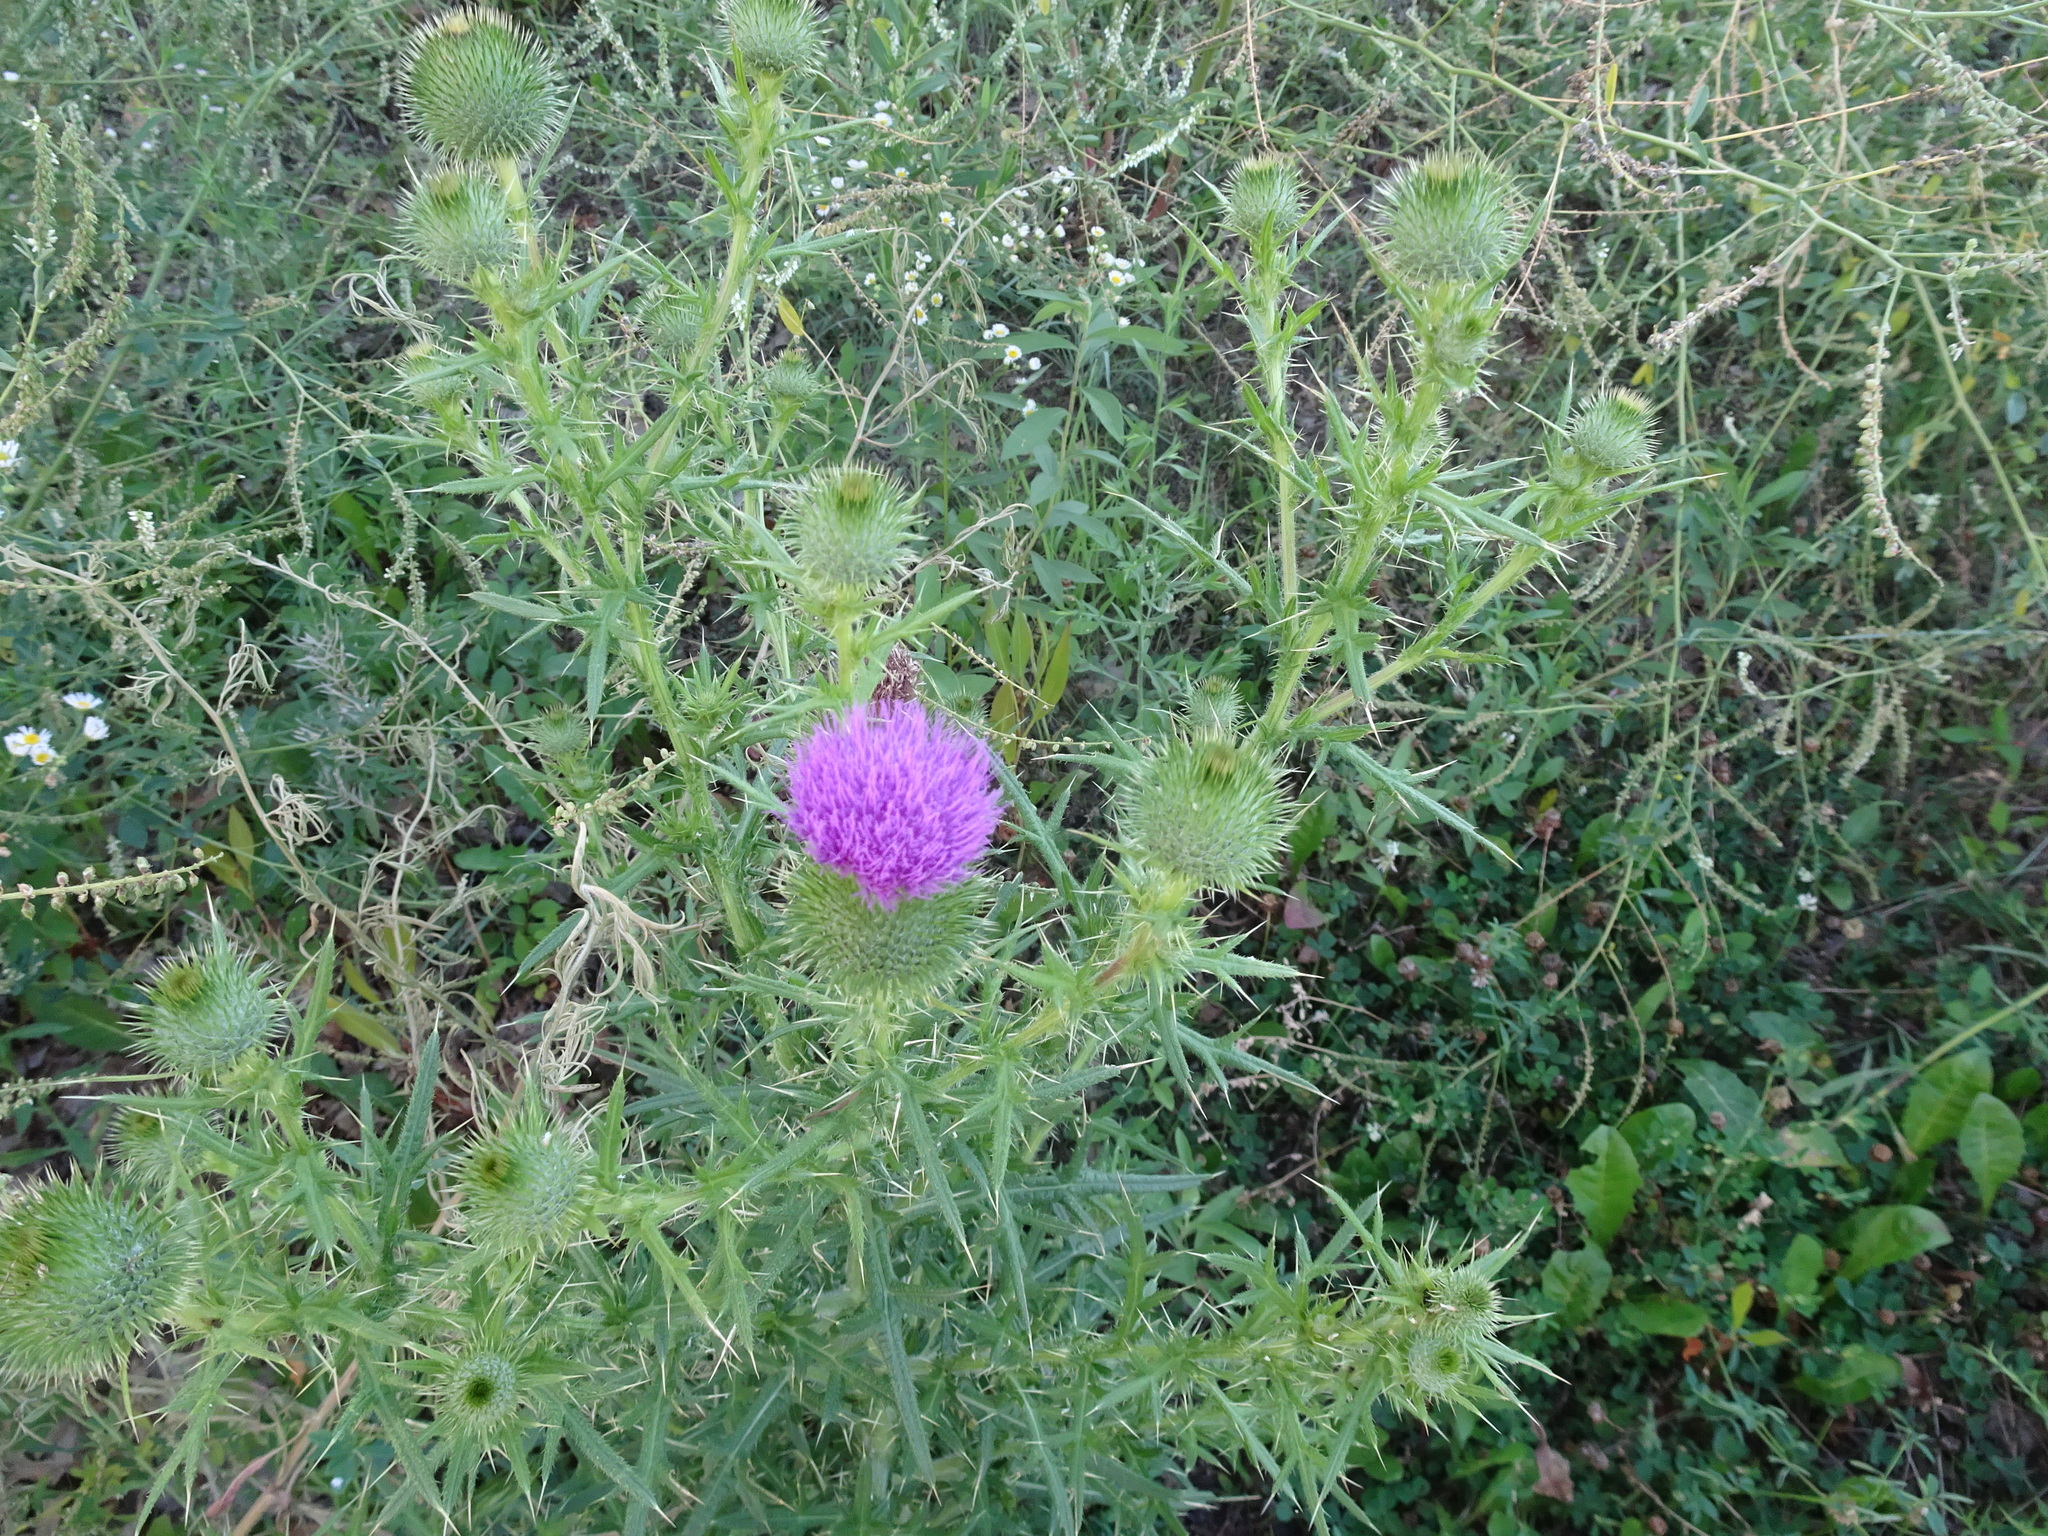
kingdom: Plantae
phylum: Tracheophyta
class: Magnoliopsida
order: Asterales
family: Asteraceae
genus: Cirsium
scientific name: Cirsium vulgare
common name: Bull thistle
